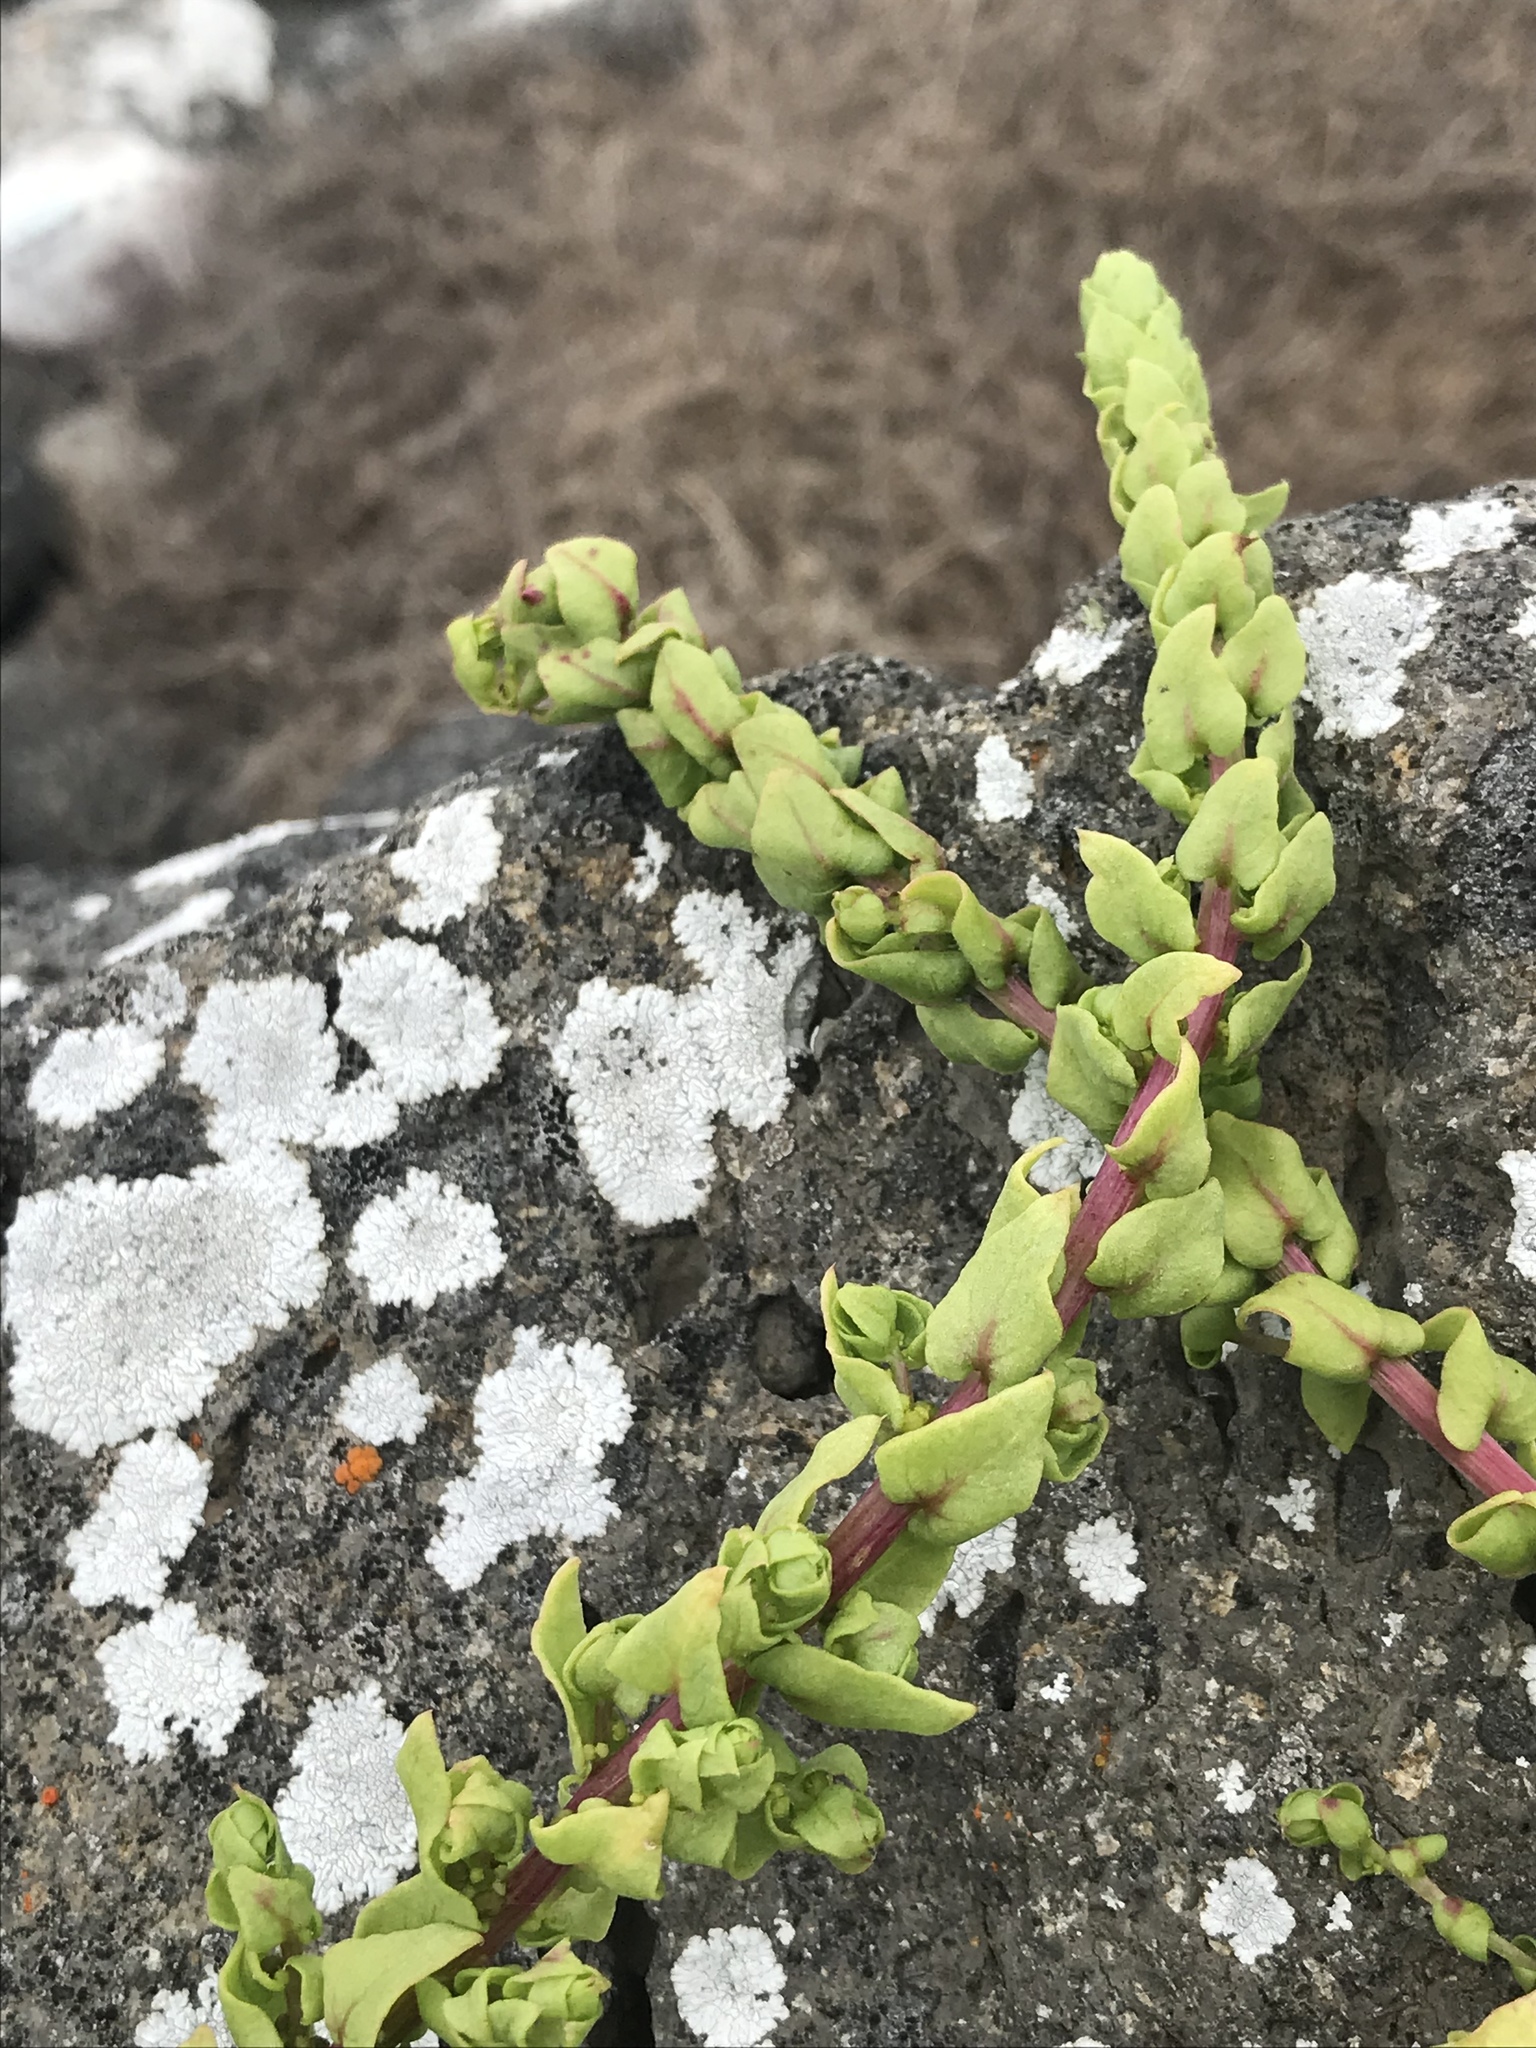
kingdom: Plantae
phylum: Tracheophyta
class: Magnoliopsida
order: Caryophyllales
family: Amaranthaceae
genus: Aphanisma
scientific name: Aphanisma blitoides
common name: Aphanisma
